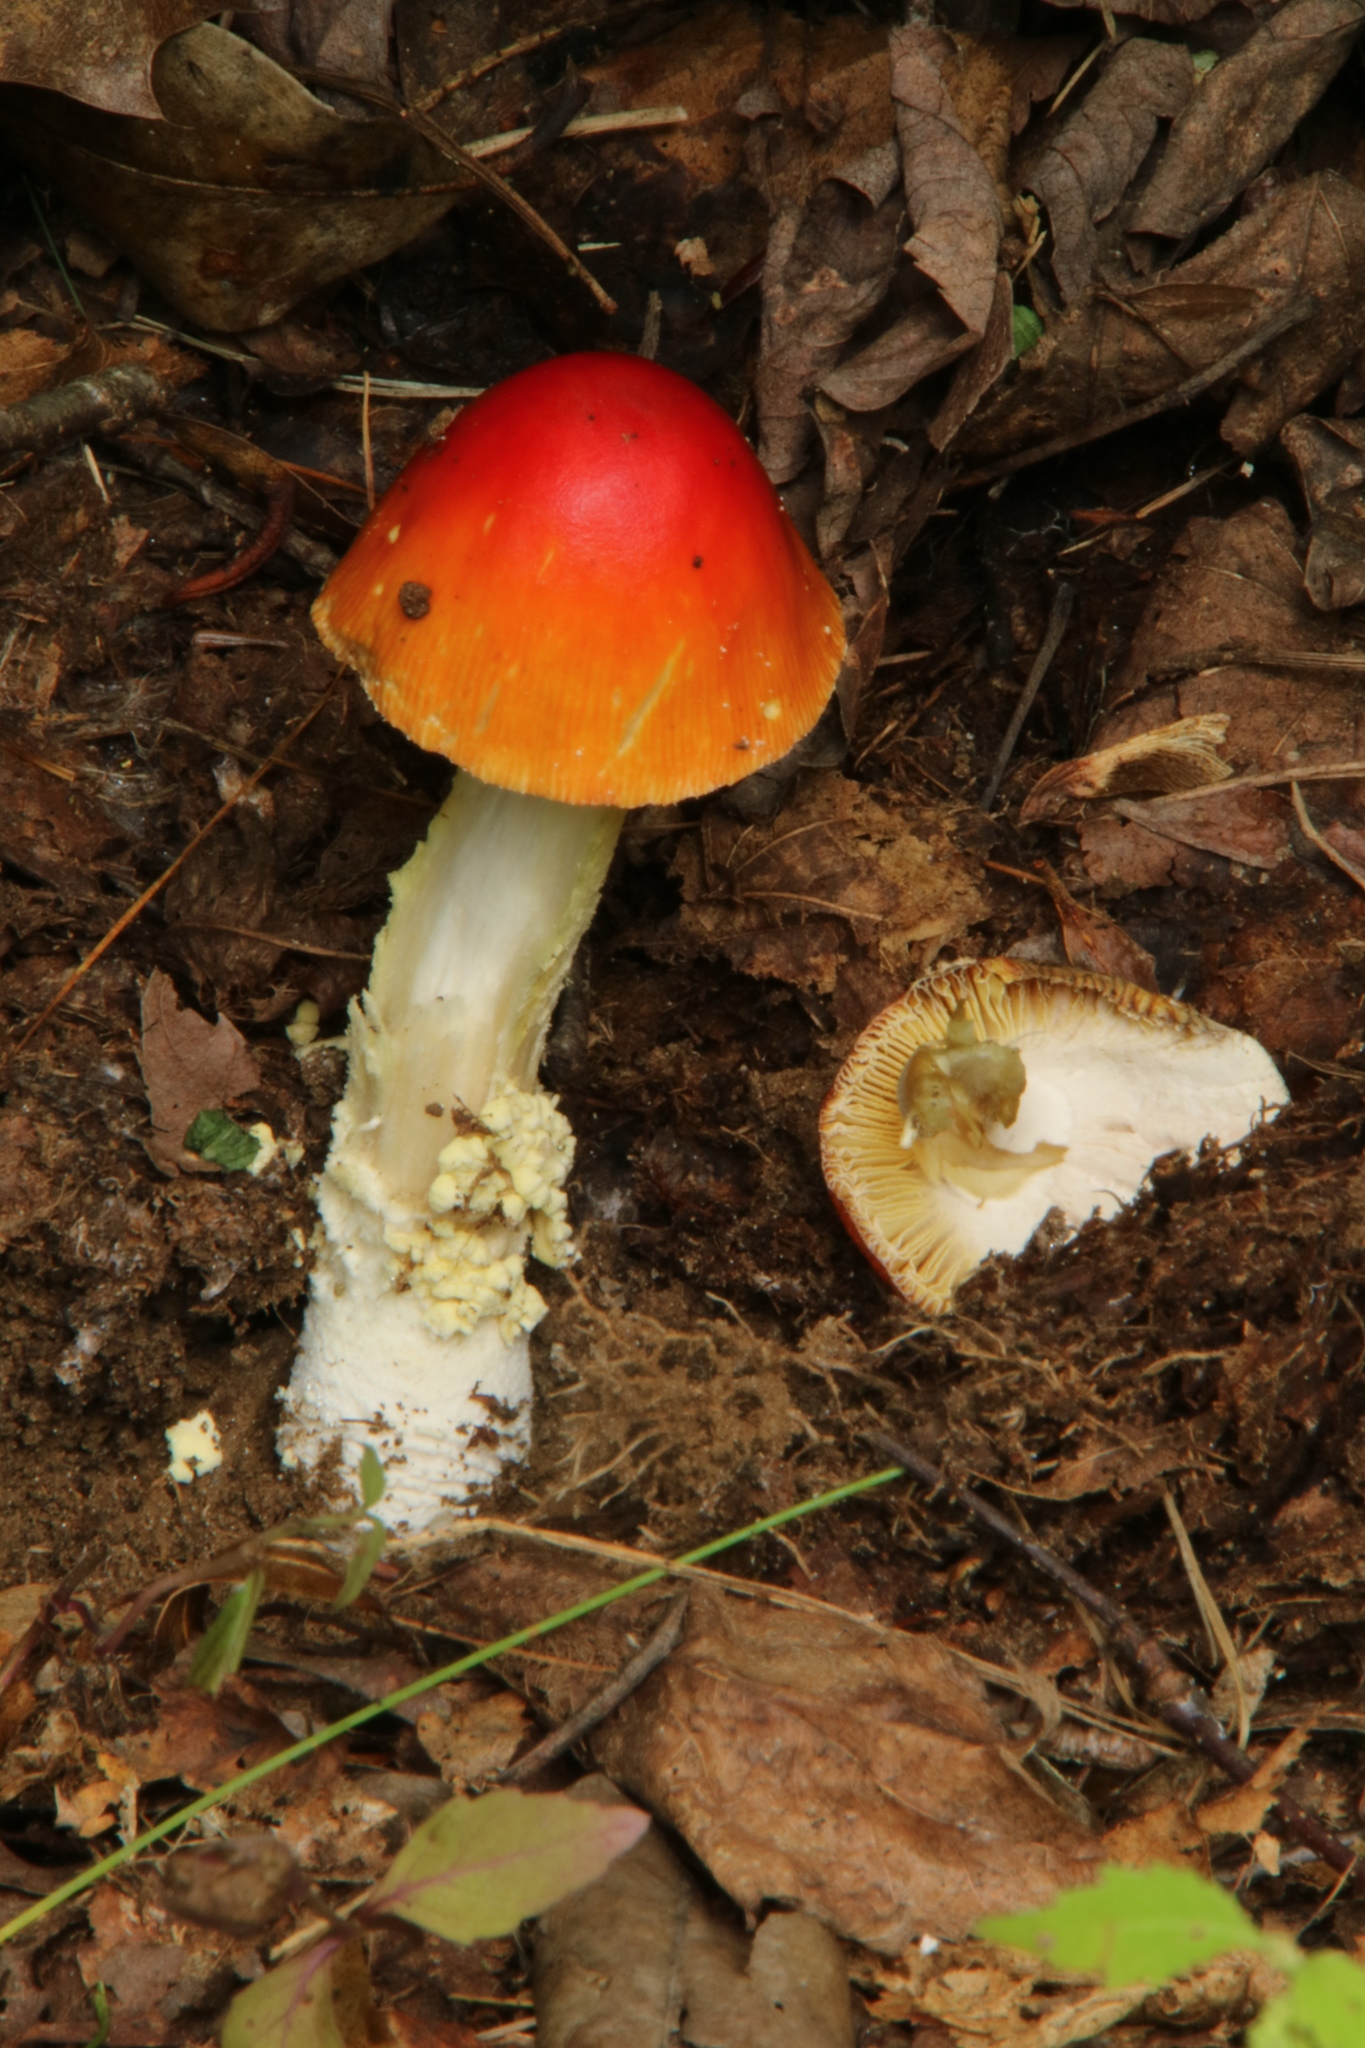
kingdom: Fungi
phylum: Basidiomycota
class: Agaricomycetes
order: Agaricales
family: Amanitaceae
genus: Amanita
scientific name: Amanita parcivolvata
